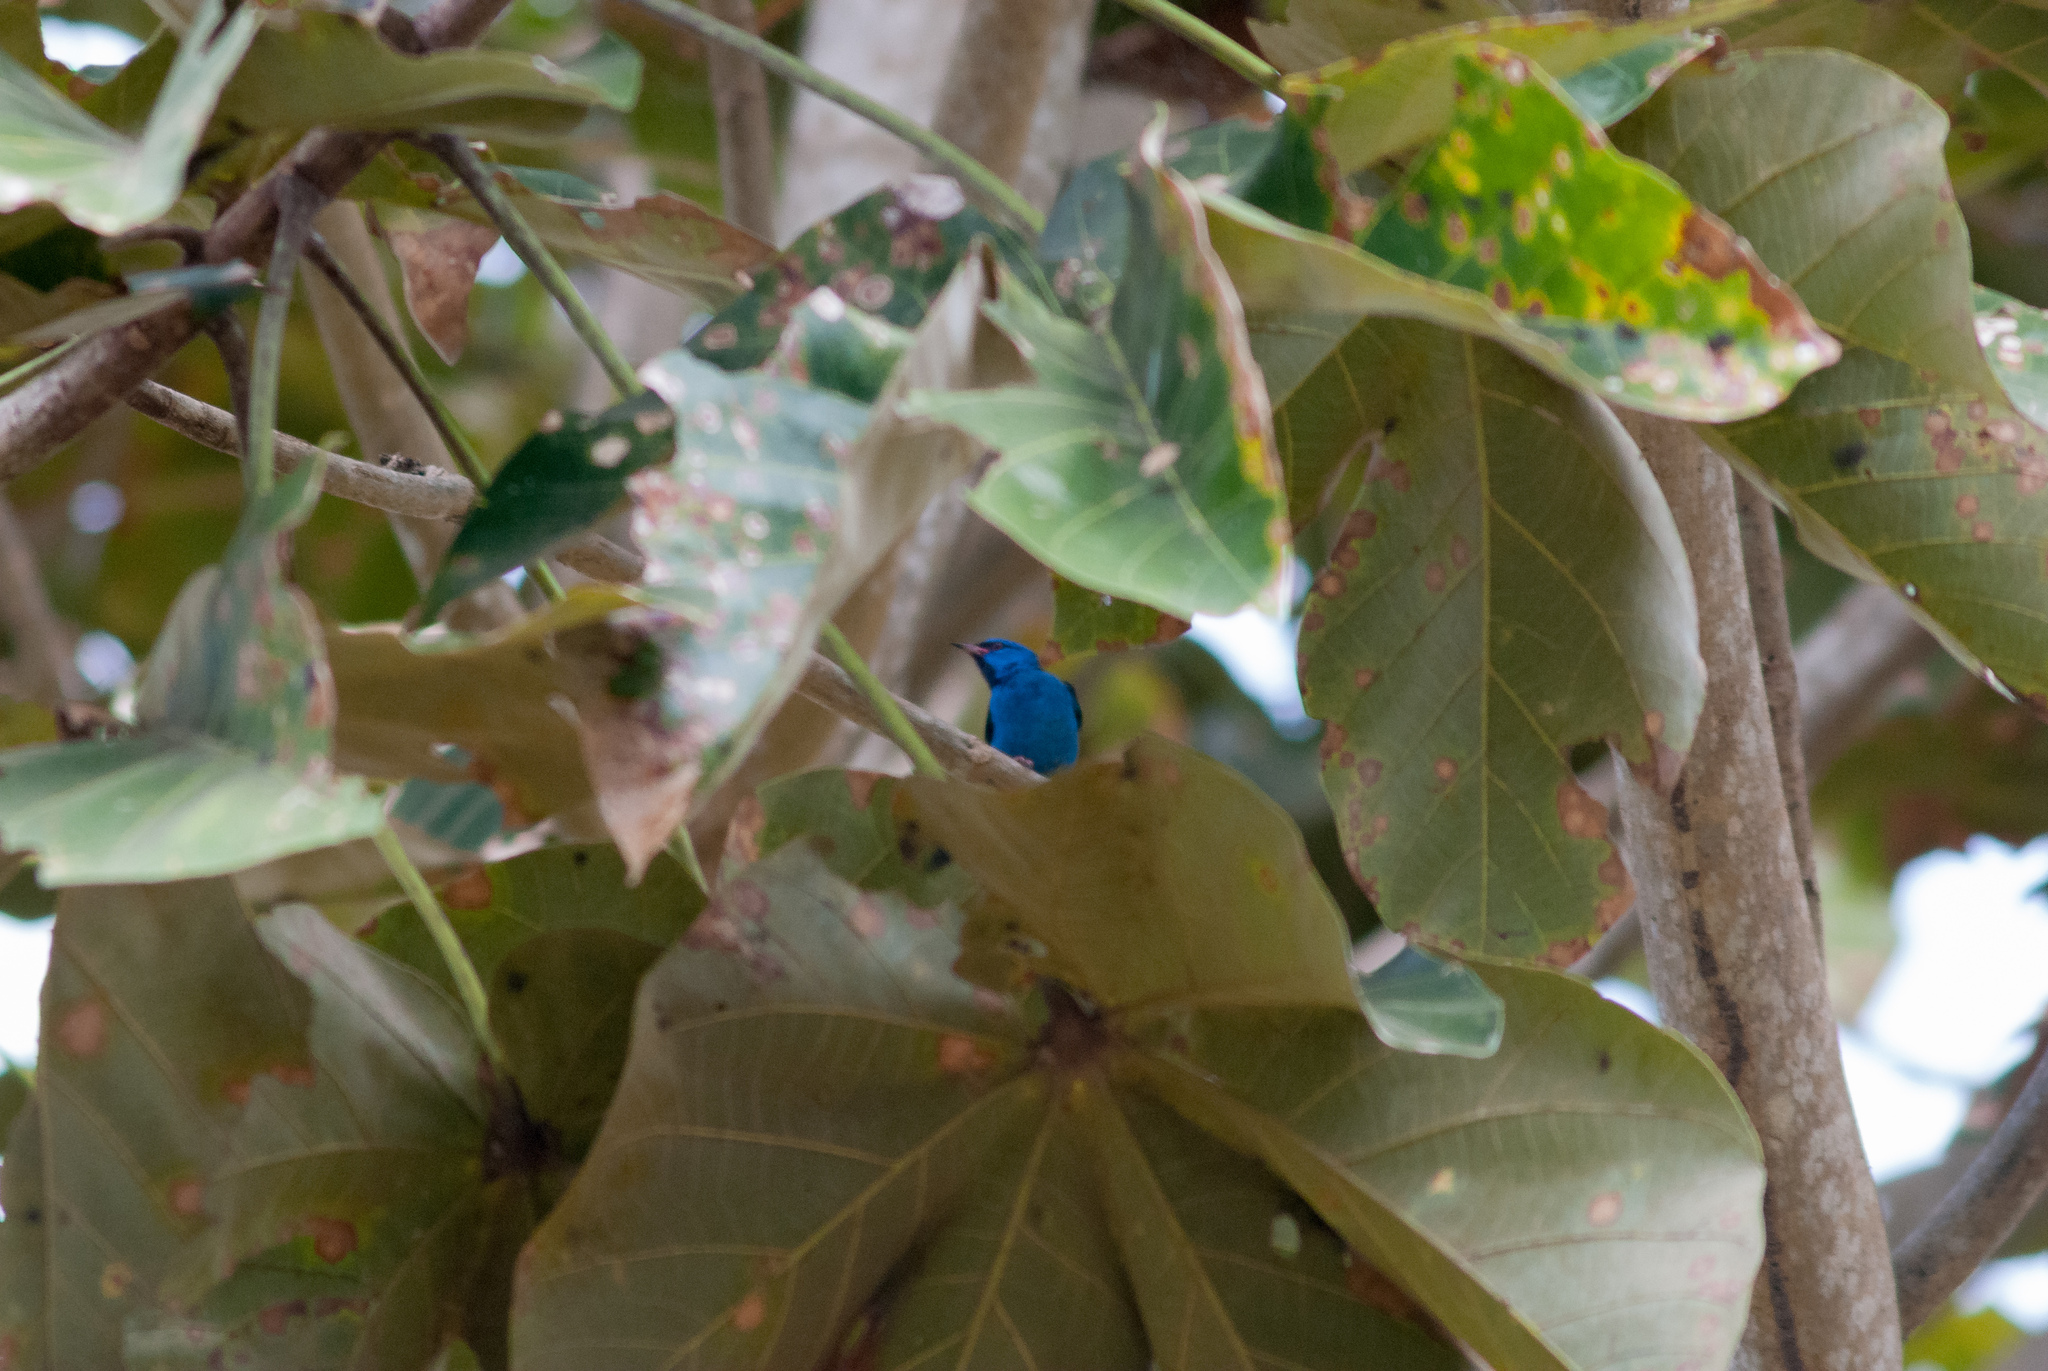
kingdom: Animalia
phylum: Chordata
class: Aves
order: Passeriformes
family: Thraupidae
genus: Dacnis
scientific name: Dacnis cayana
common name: Blue dacnis
